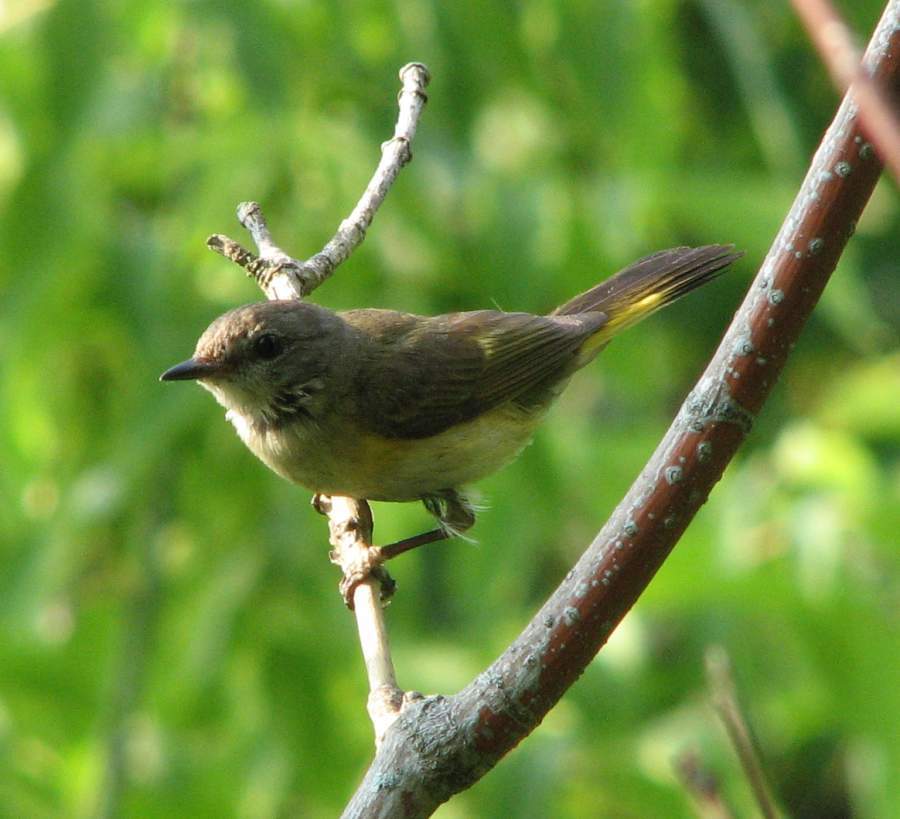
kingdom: Animalia
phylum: Chordata
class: Aves
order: Passeriformes
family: Parulidae
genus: Setophaga
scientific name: Setophaga ruticilla
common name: American redstart
